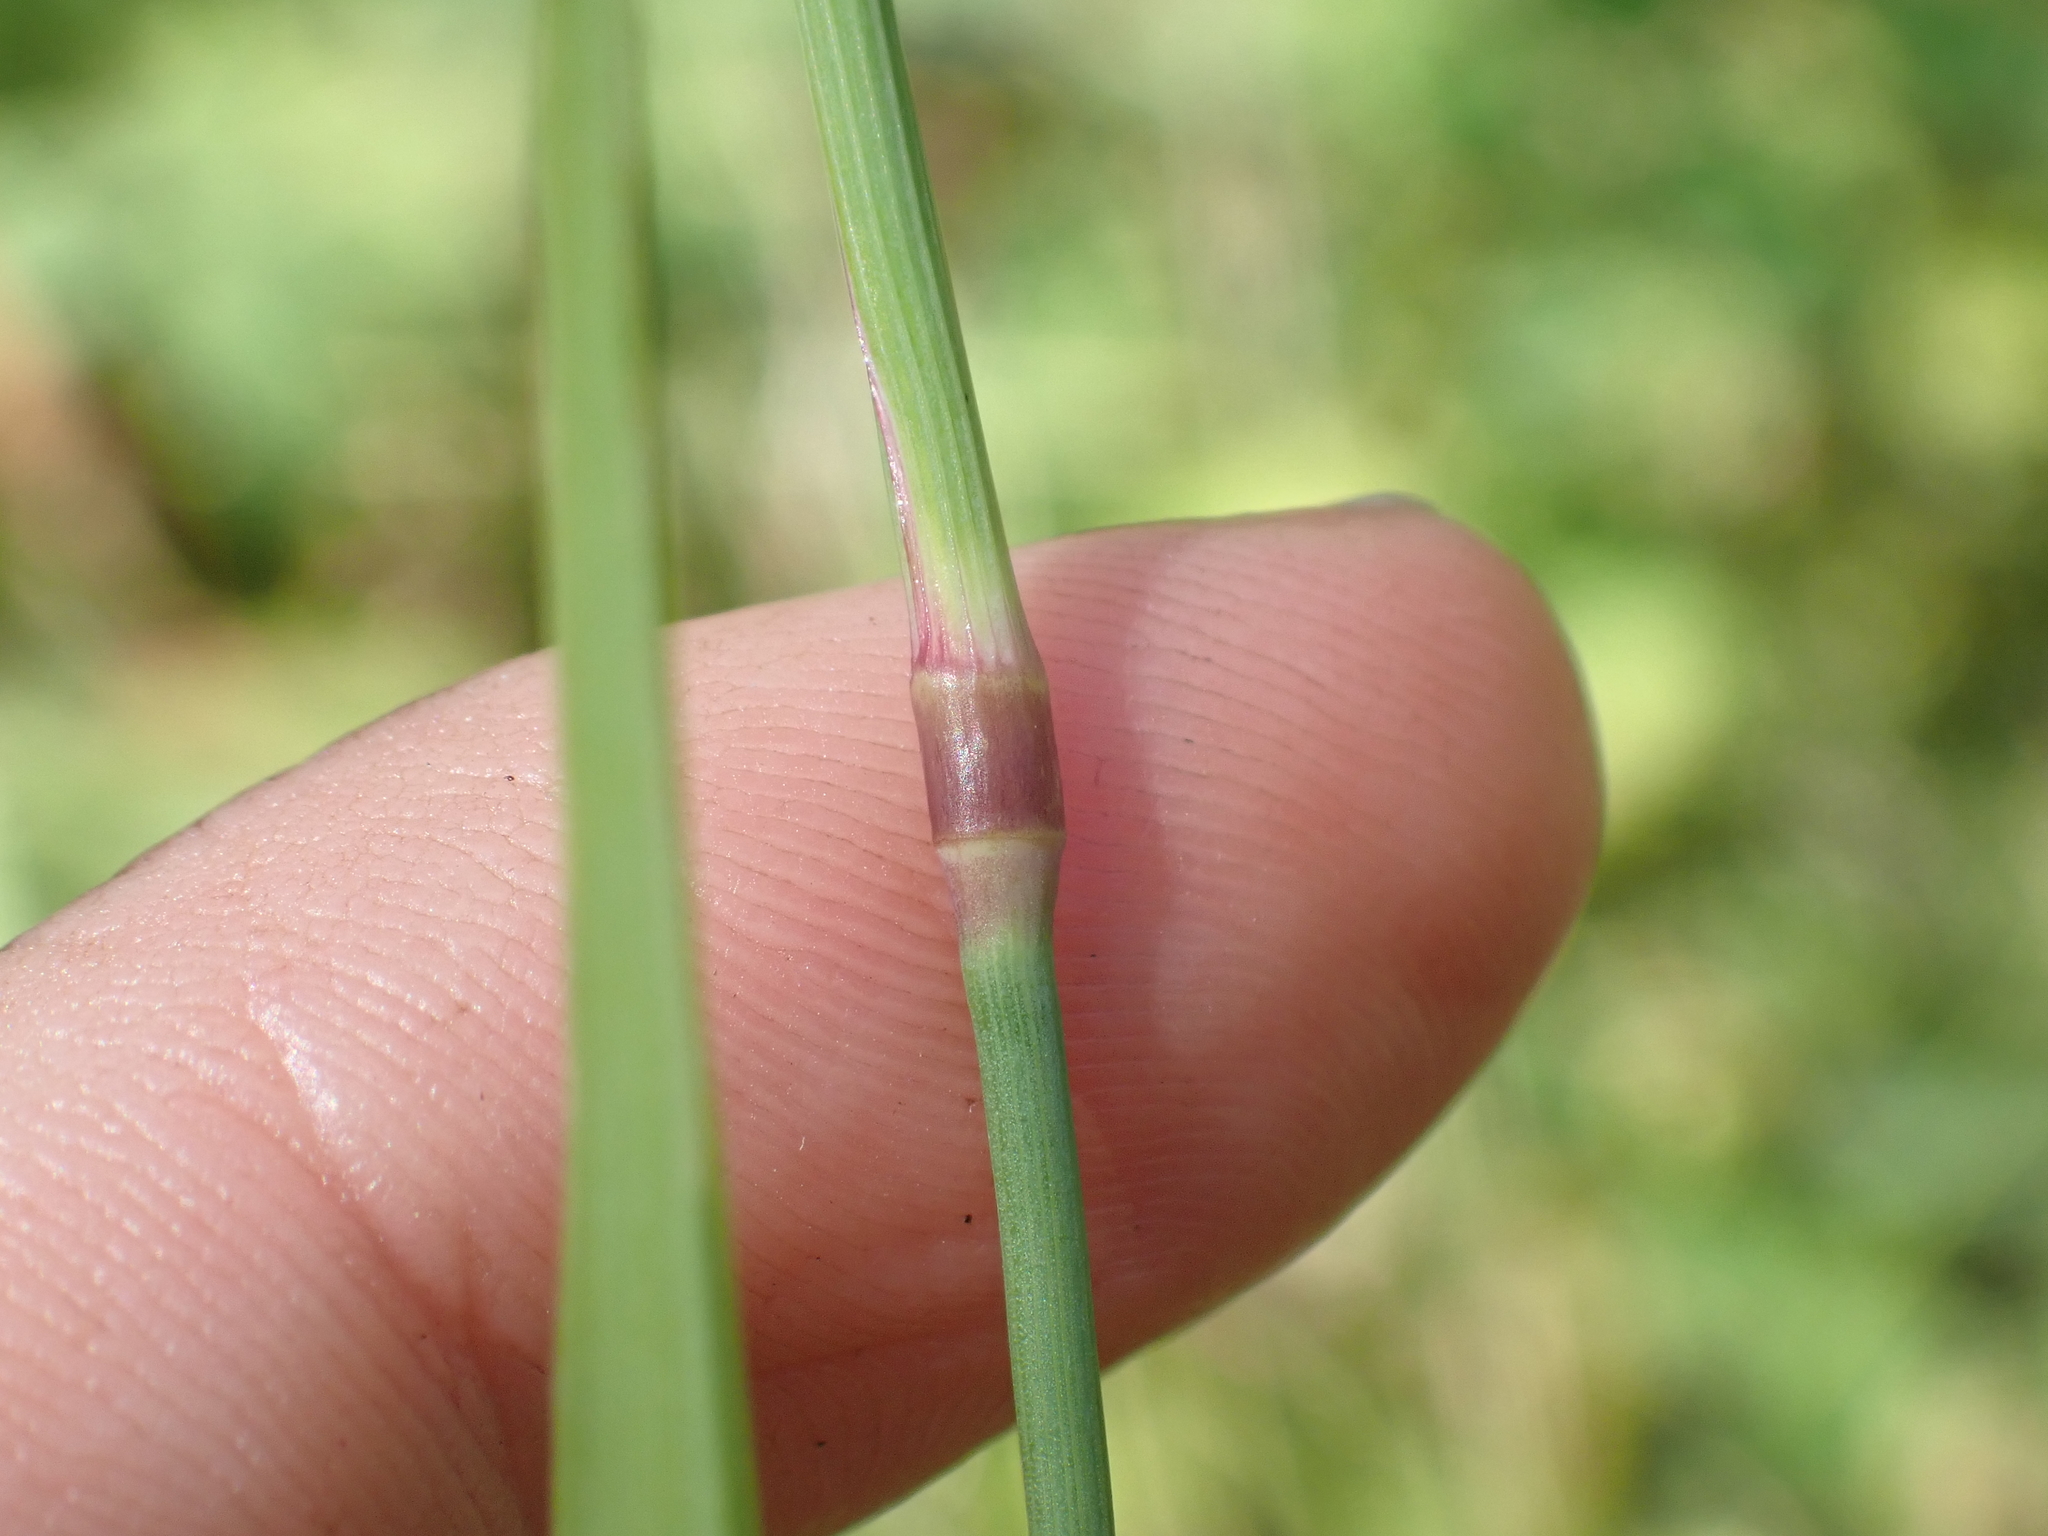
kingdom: Plantae
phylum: Tracheophyta
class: Liliopsida
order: Poales
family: Poaceae
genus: Phleum
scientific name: Phleum pratense
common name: Timothy grass
